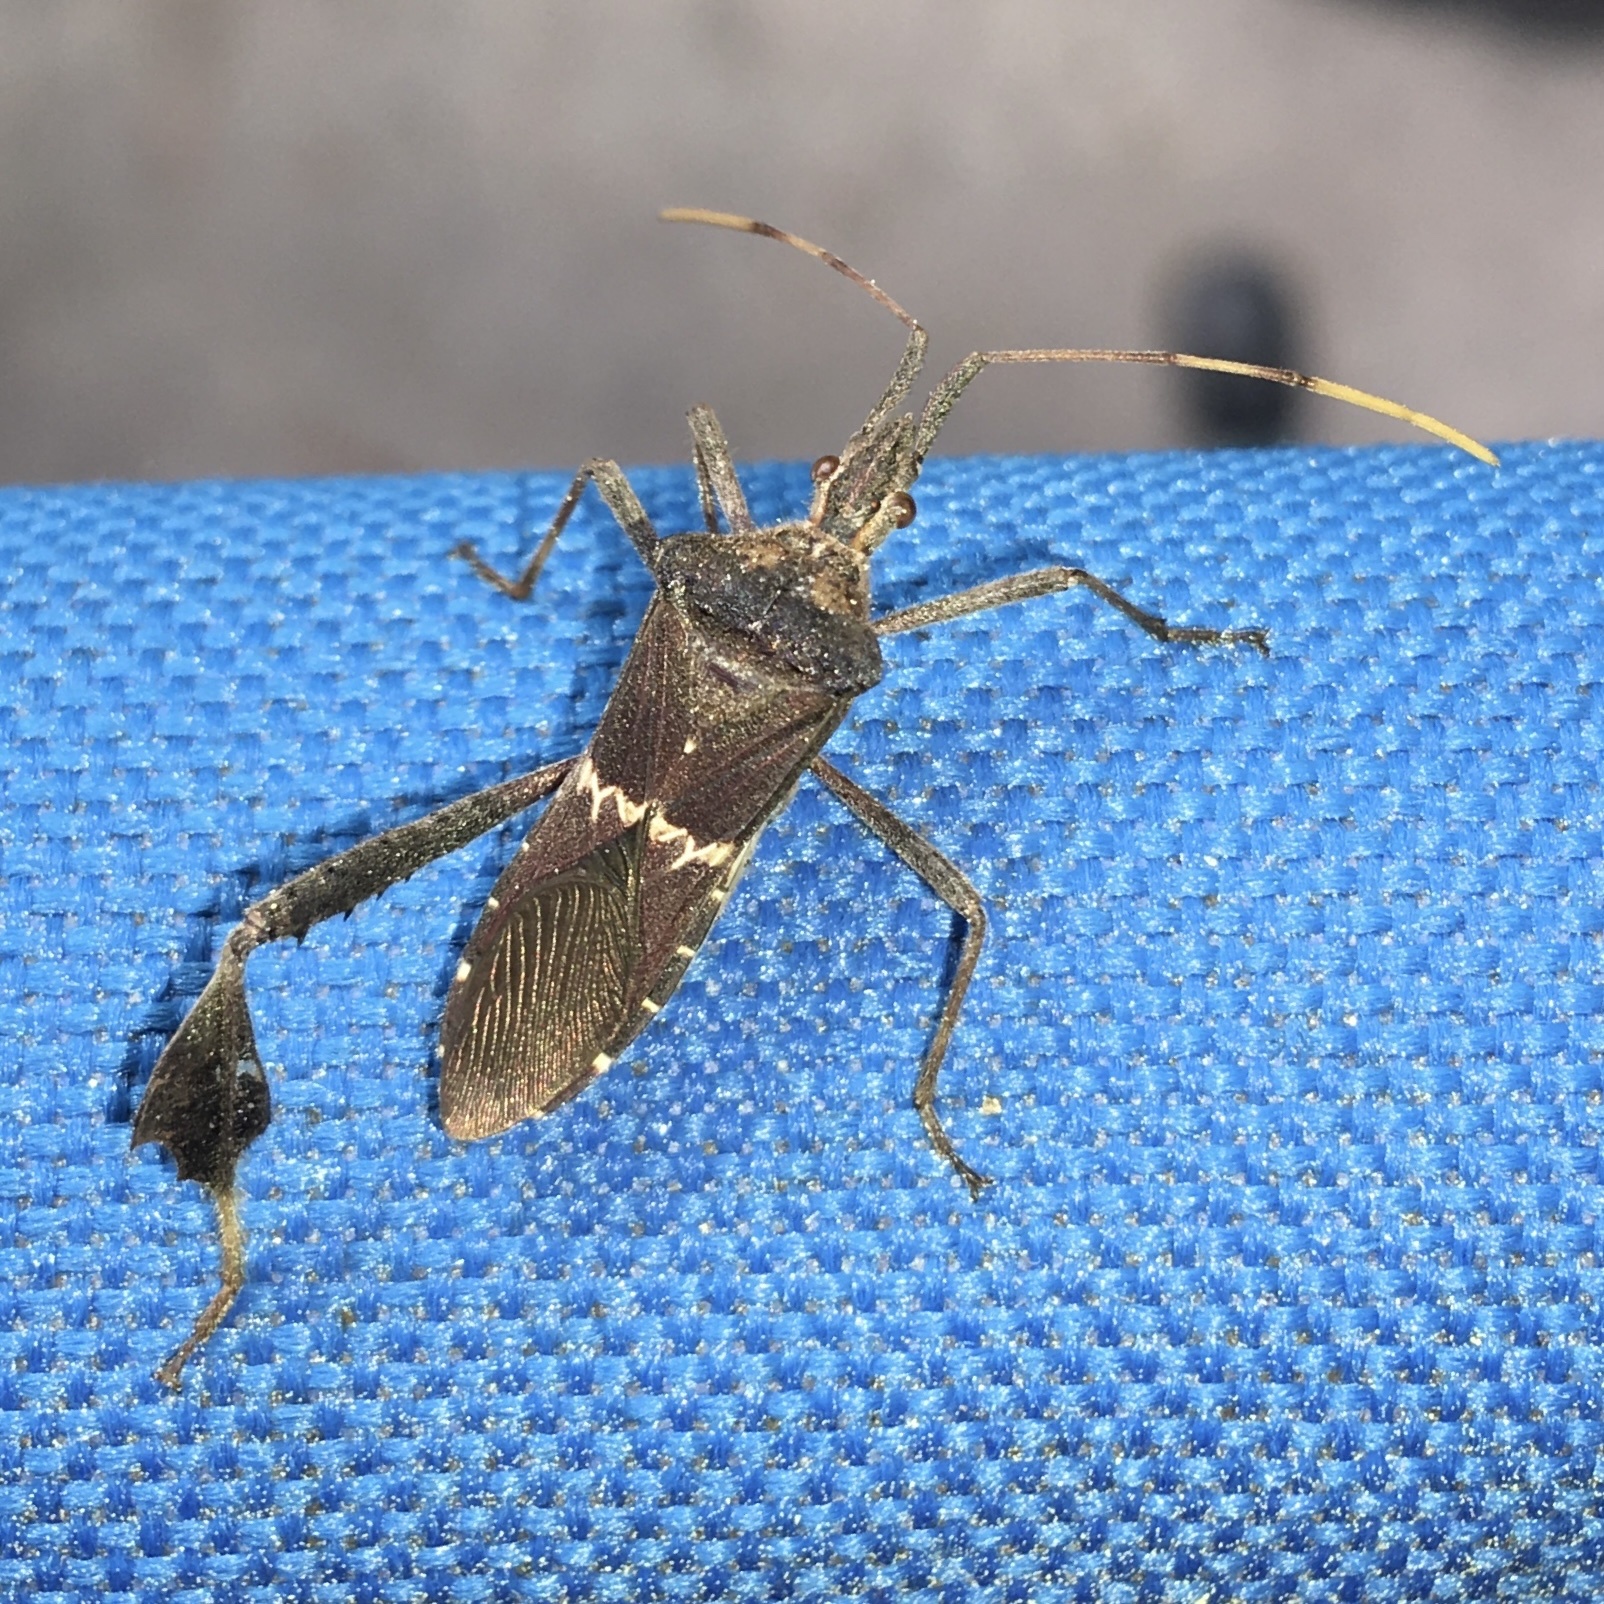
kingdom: Animalia
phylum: Arthropoda
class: Insecta
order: Hemiptera
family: Coreidae
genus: Leptoglossus
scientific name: Leptoglossus zonatus
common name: Large-legged bug
